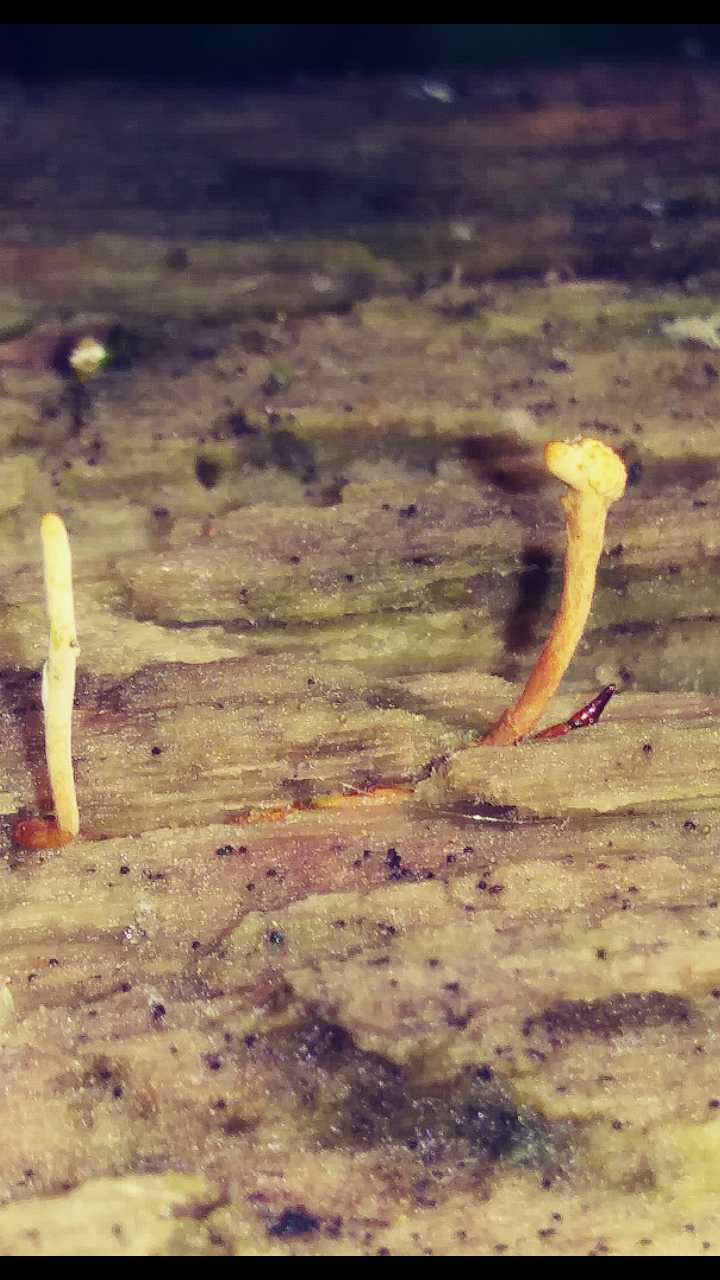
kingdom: Fungi
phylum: Ascomycota
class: Sordariomycetes
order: Hypocreales
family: Ophiocordycipitaceae
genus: Ophiocordyceps
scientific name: Ophiocordyceps variabilis
